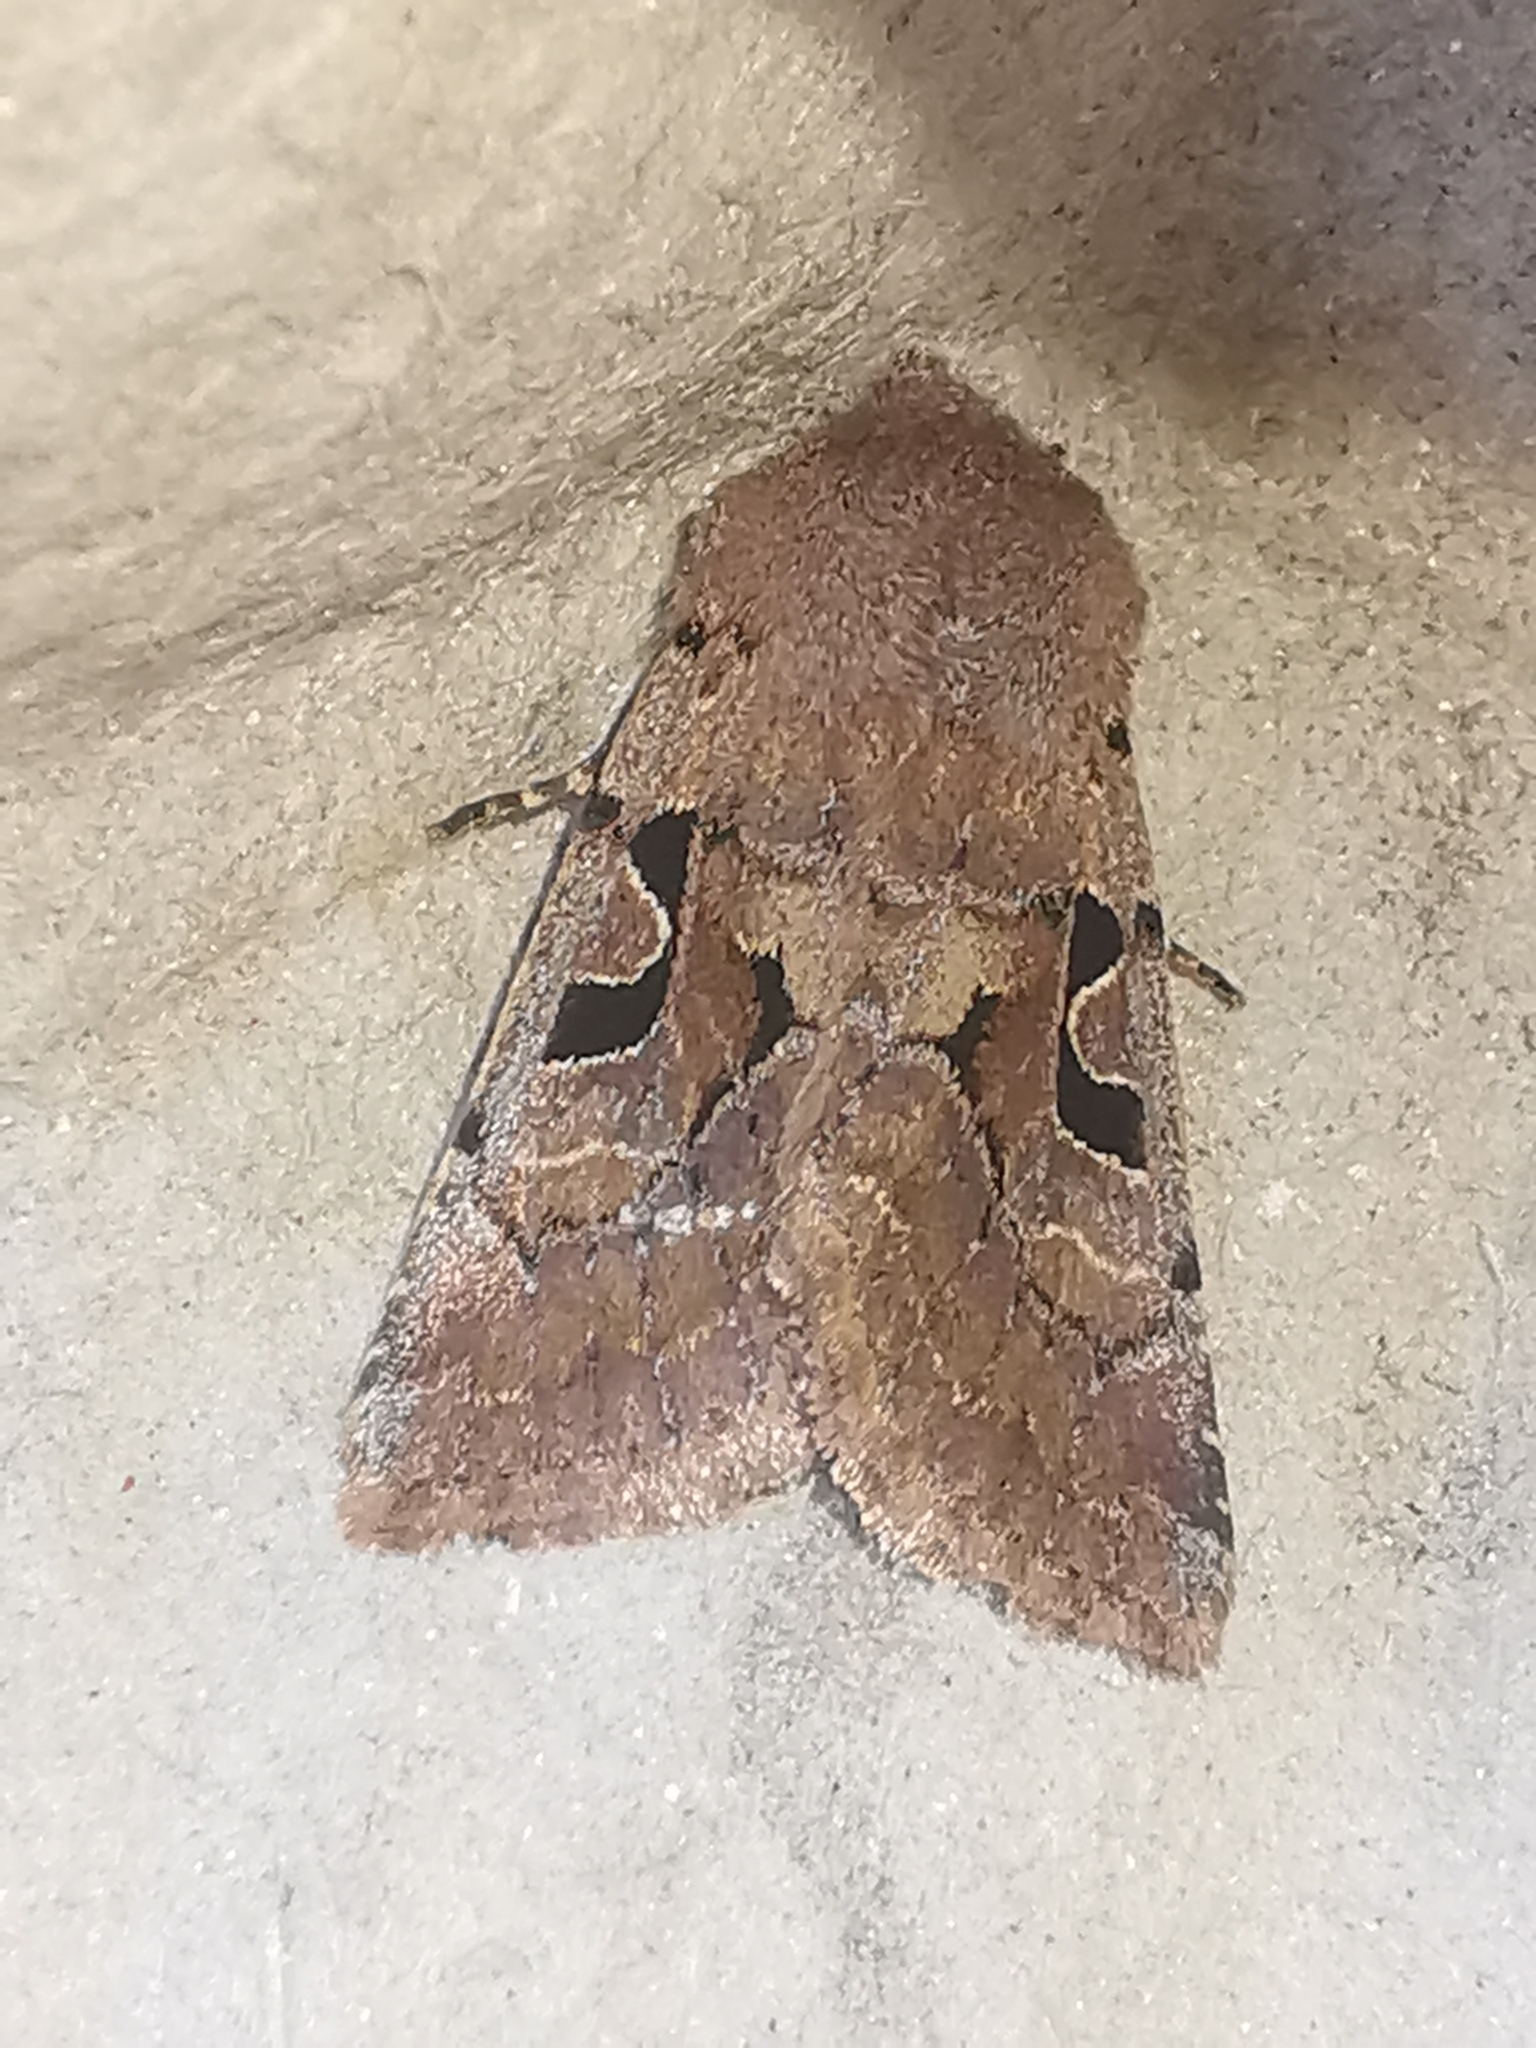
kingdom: Animalia
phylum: Arthropoda
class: Insecta
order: Lepidoptera
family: Noctuidae
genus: Orthosia
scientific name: Orthosia gothica
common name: Hebrew character
